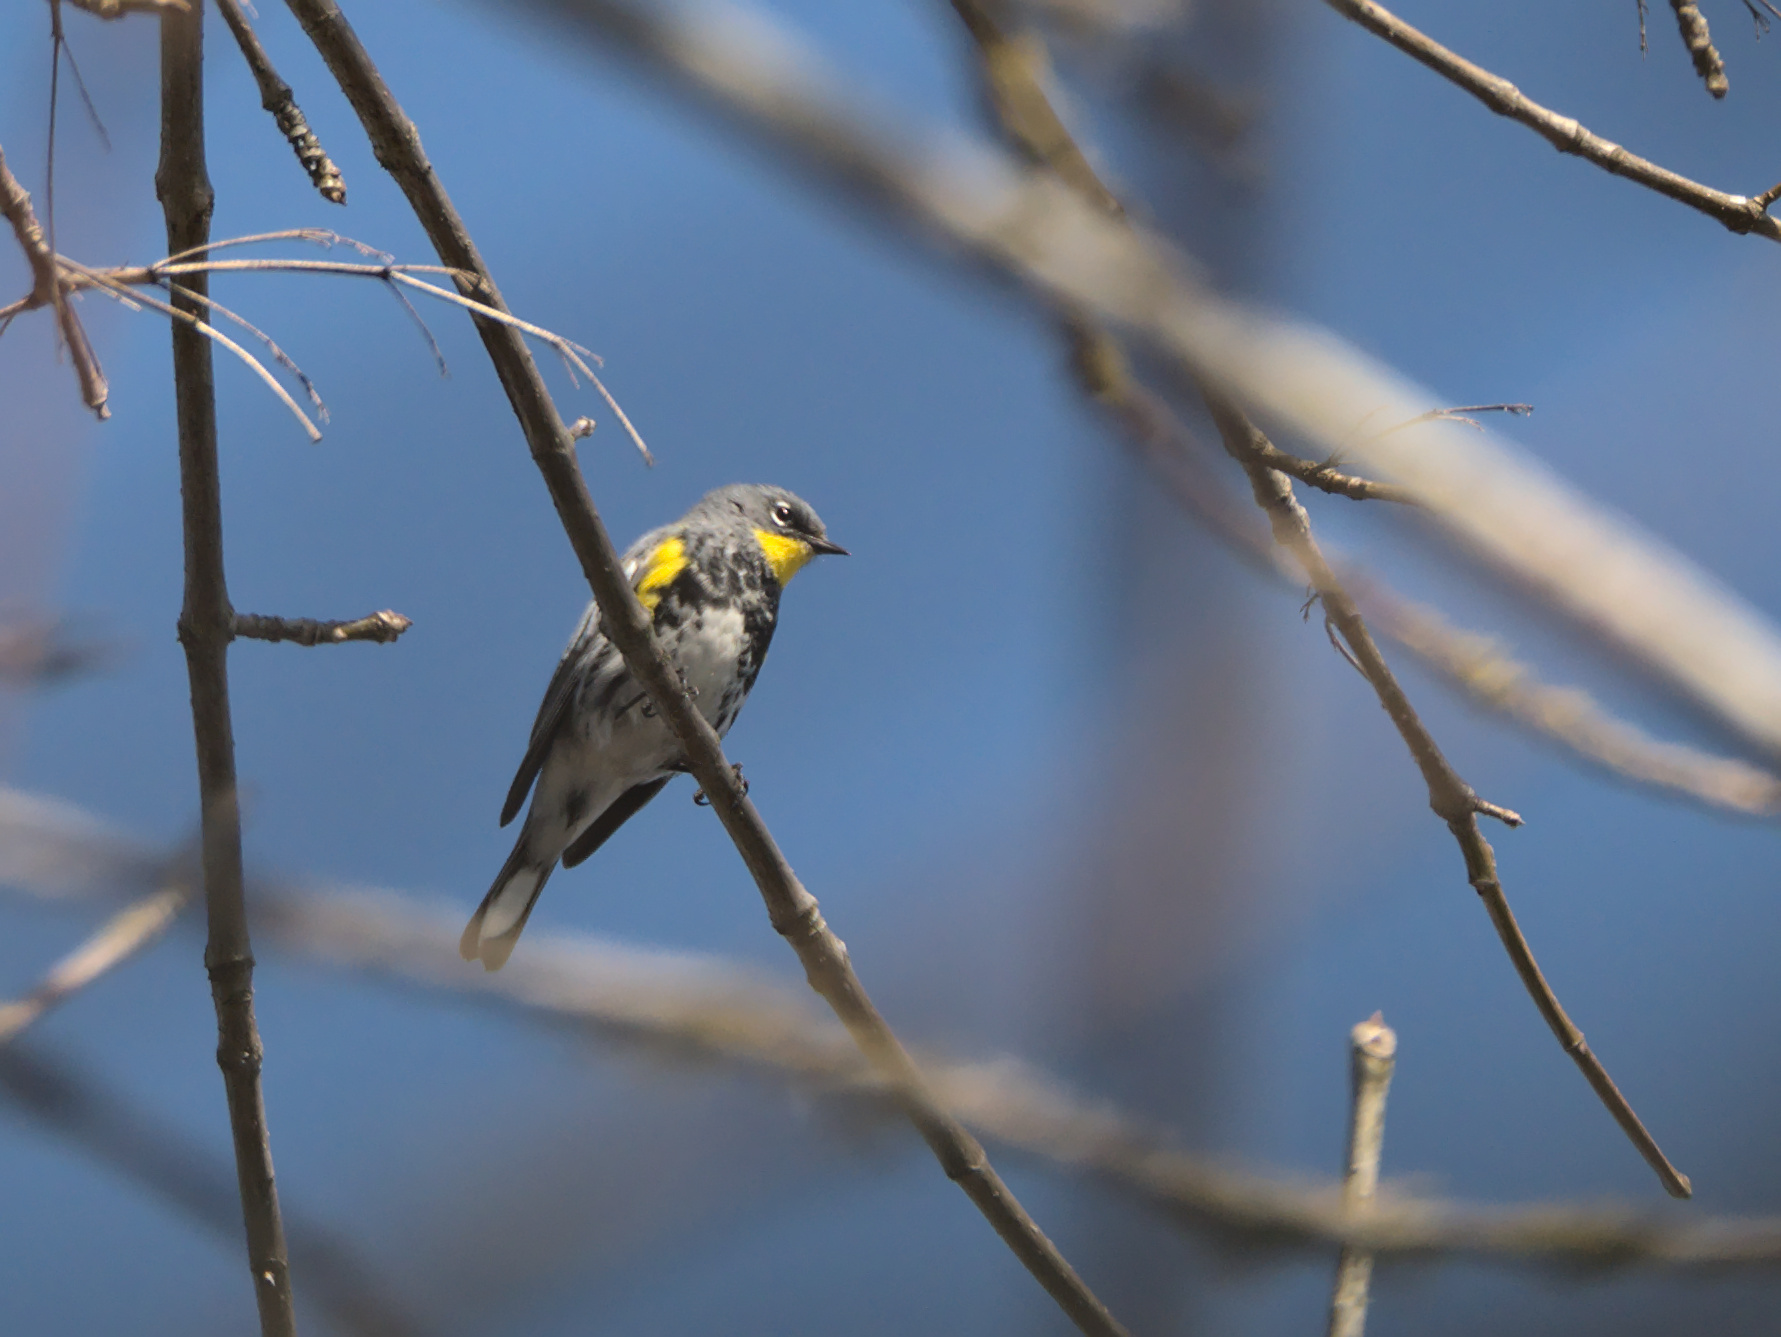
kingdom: Animalia
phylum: Chordata
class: Aves
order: Passeriformes
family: Parulidae
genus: Setophaga
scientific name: Setophaga auduboni
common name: Audubon's warbler
